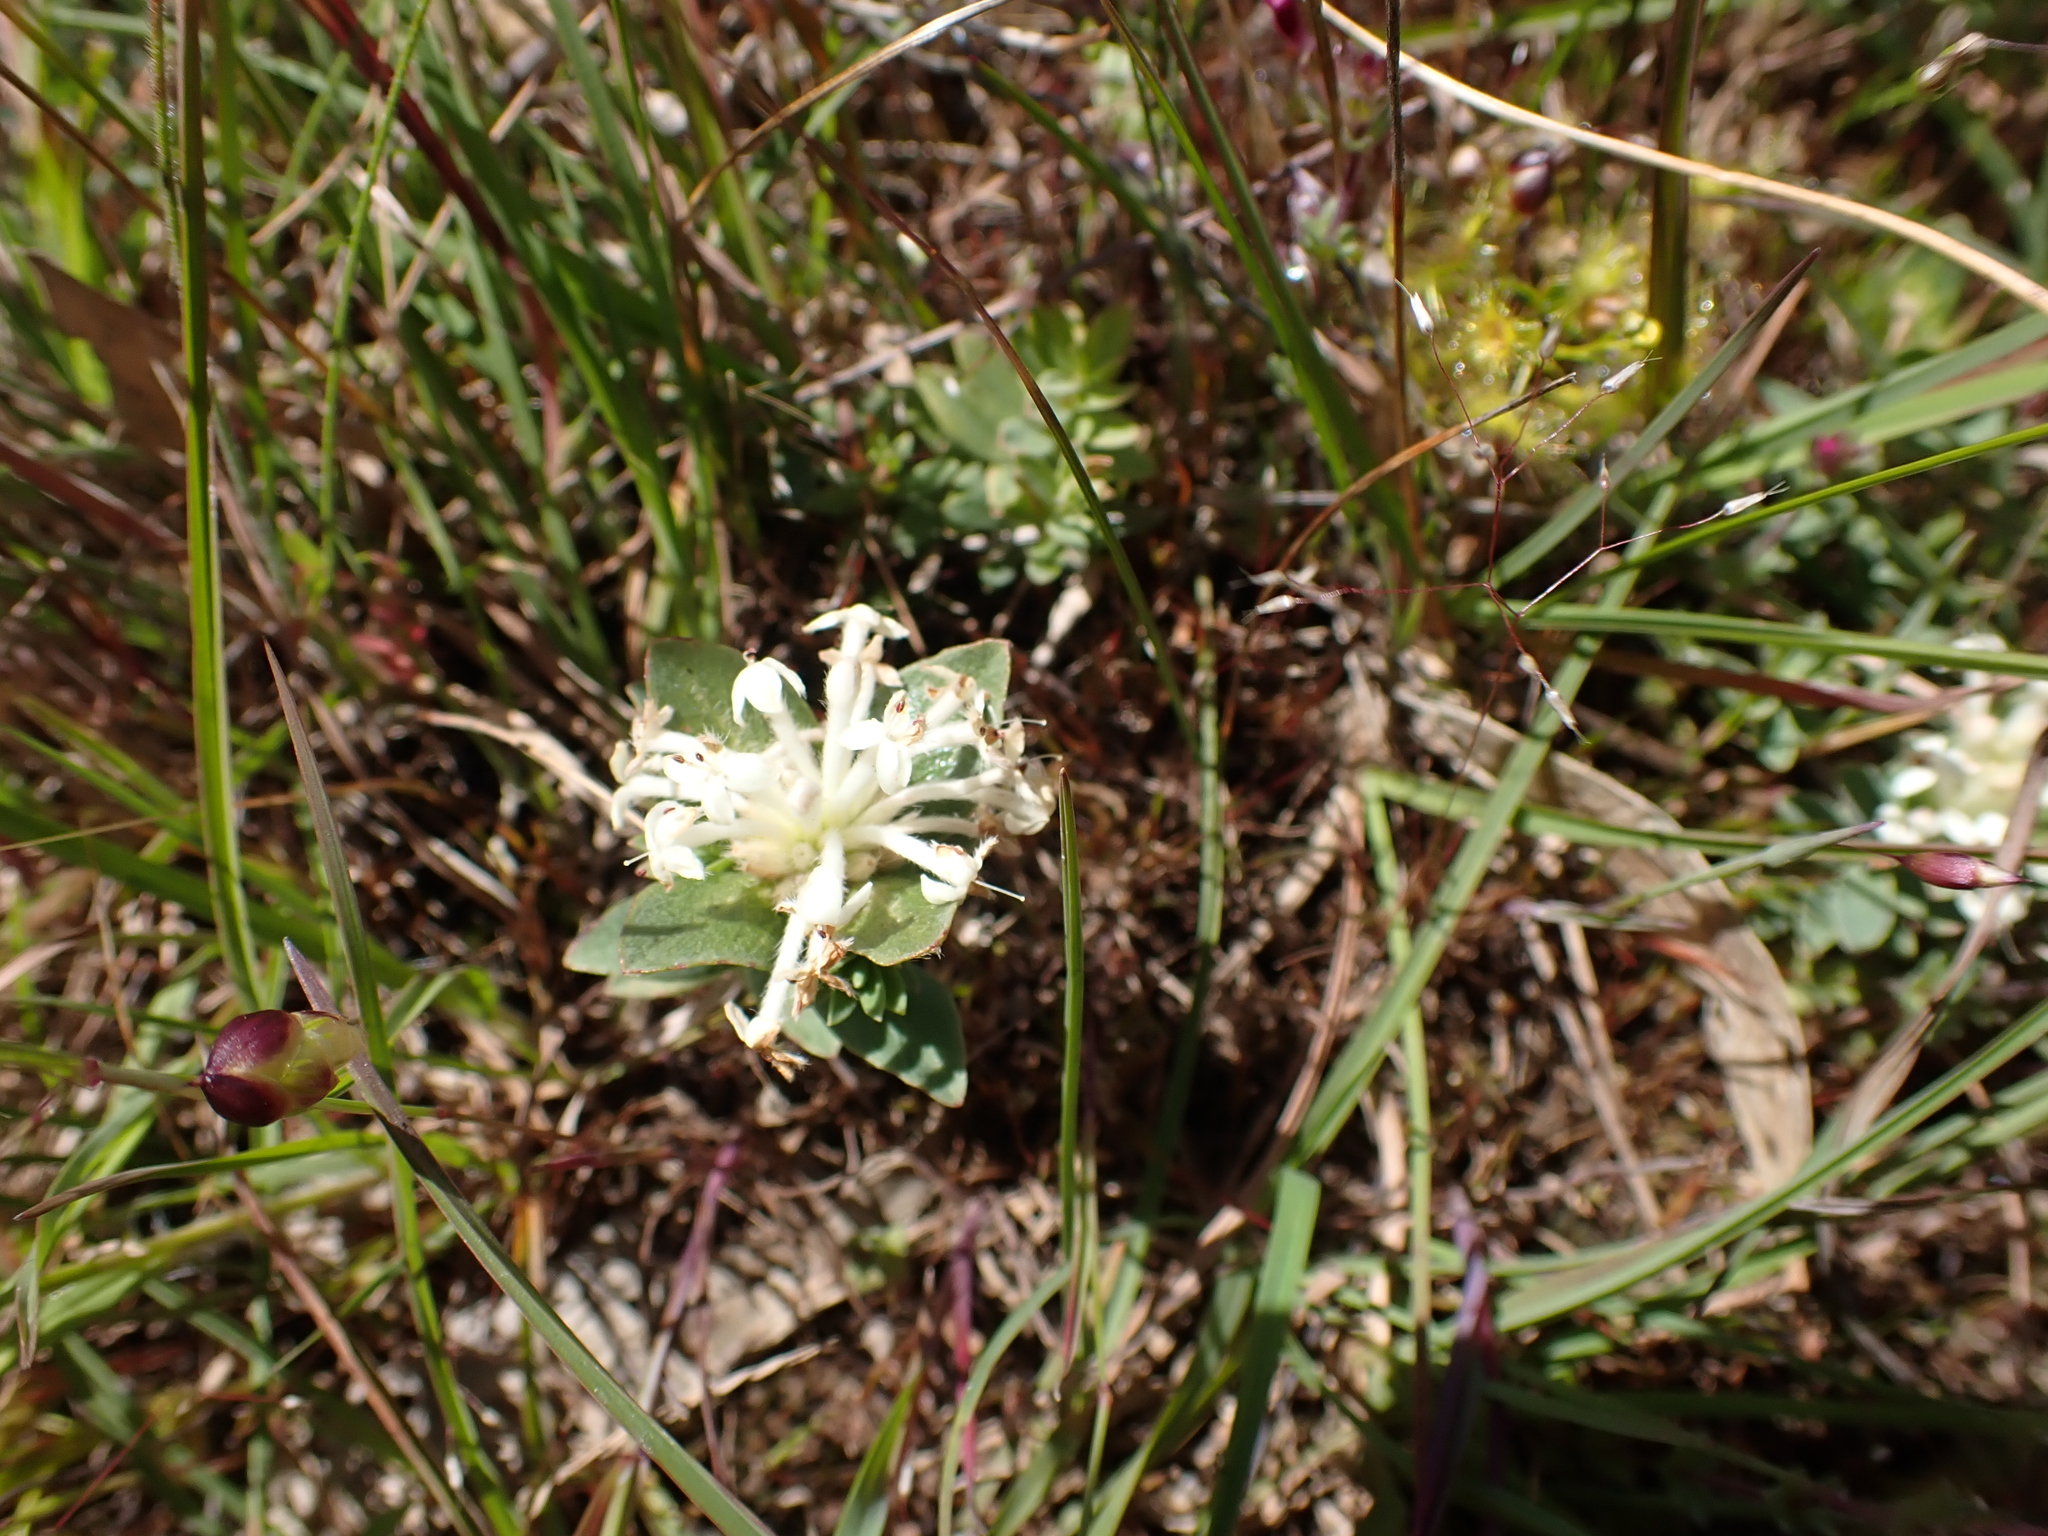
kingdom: Plantae
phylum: Tracheophyta
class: Magnoliopsida
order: Malvales
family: Thymelaeaceae
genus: Pimelea
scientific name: Pimelea humilis
